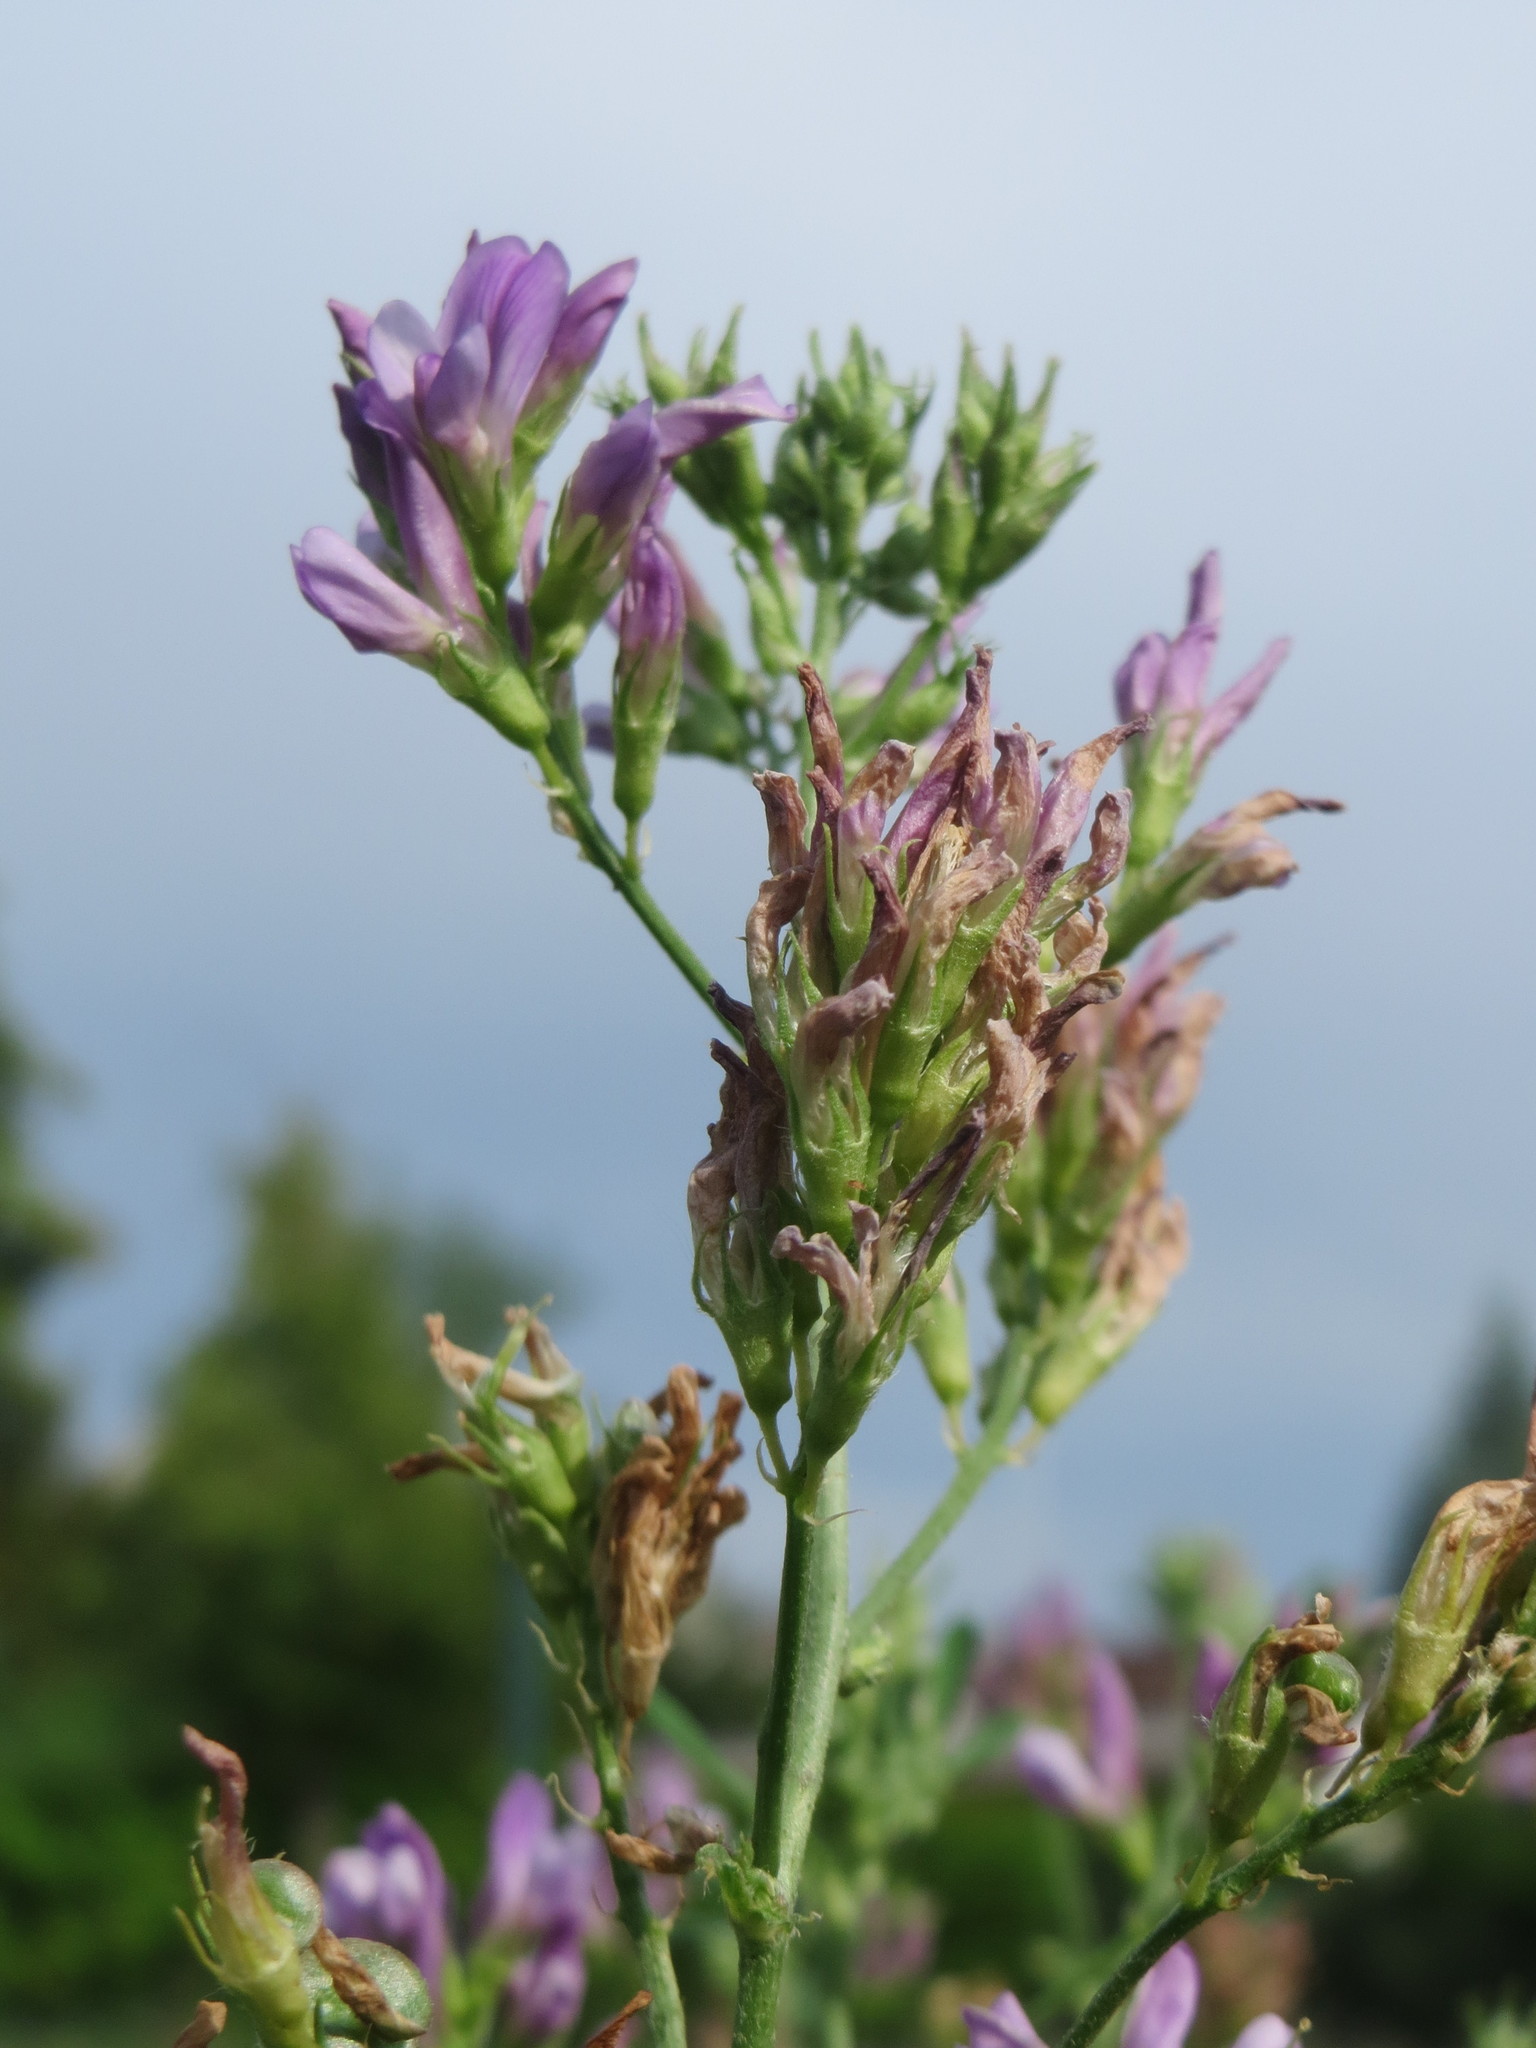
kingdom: Plantae
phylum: Tracheophyta
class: Magnoliopsida
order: Fabales
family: Fabaceae
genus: Medicago
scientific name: Medicago sativa
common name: Alfalfa
